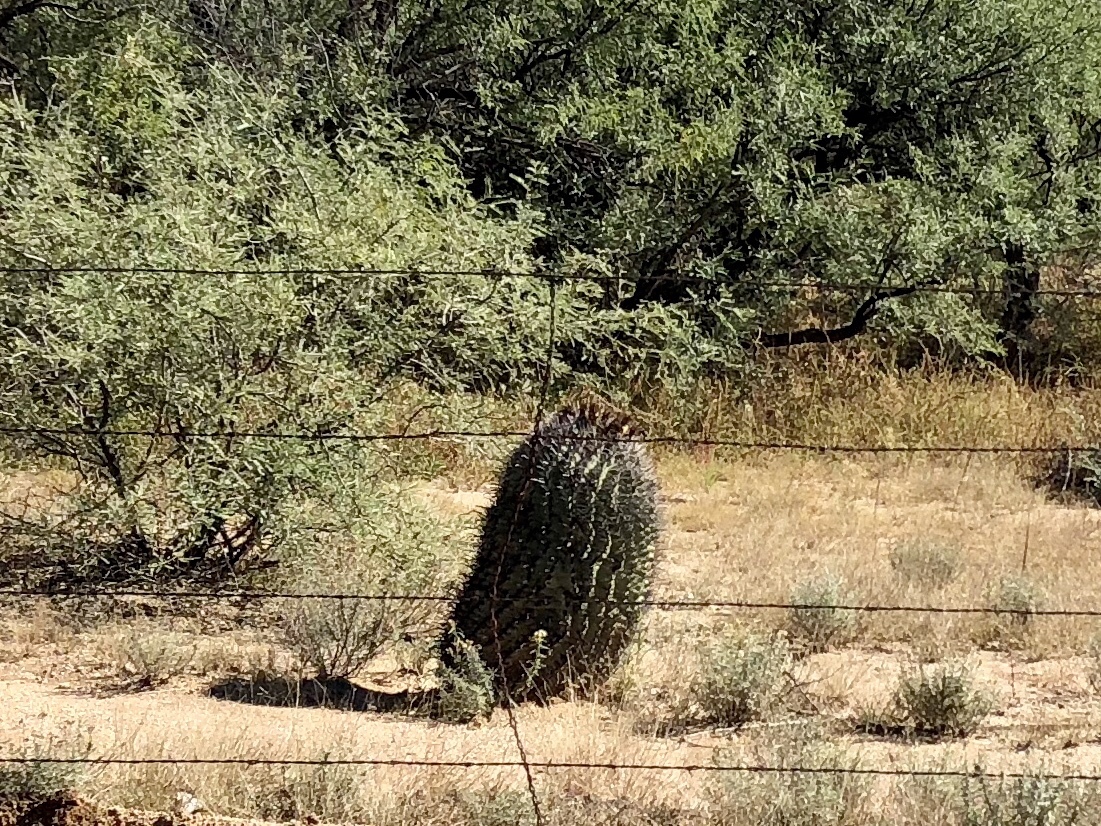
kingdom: Plantae
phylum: Tracheophyta
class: Magnoliopsida
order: Caryophyllales
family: Cactaceae
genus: Ferocactus
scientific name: Ferocactus wislizeni
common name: Candy barrel cactus
